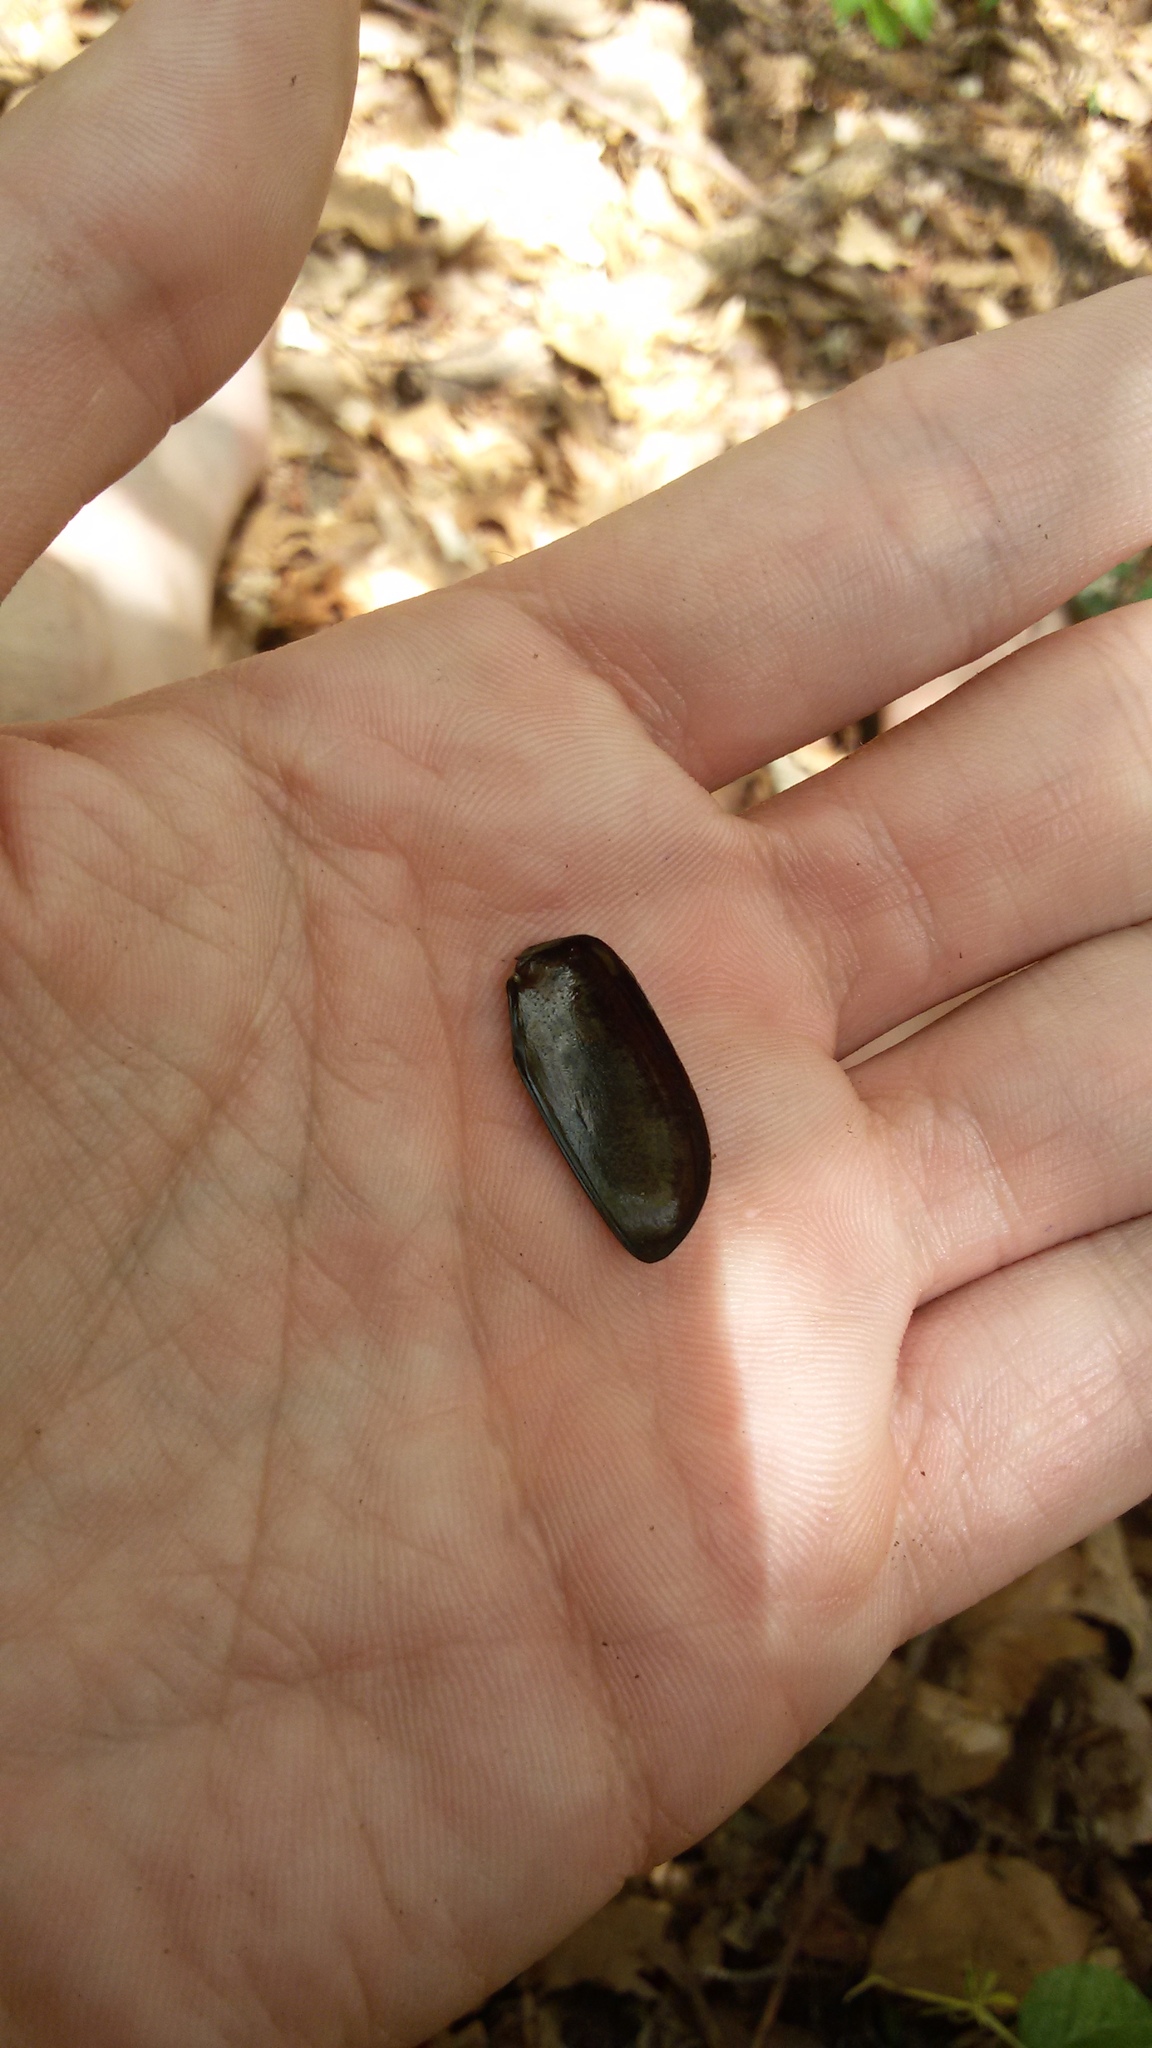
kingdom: Animalia
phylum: Arthropoda
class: Insecta
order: Coleoptera
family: Scarabaeidae
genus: Osmoderma
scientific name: Osmoderma eremita
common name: Hermit beetle
